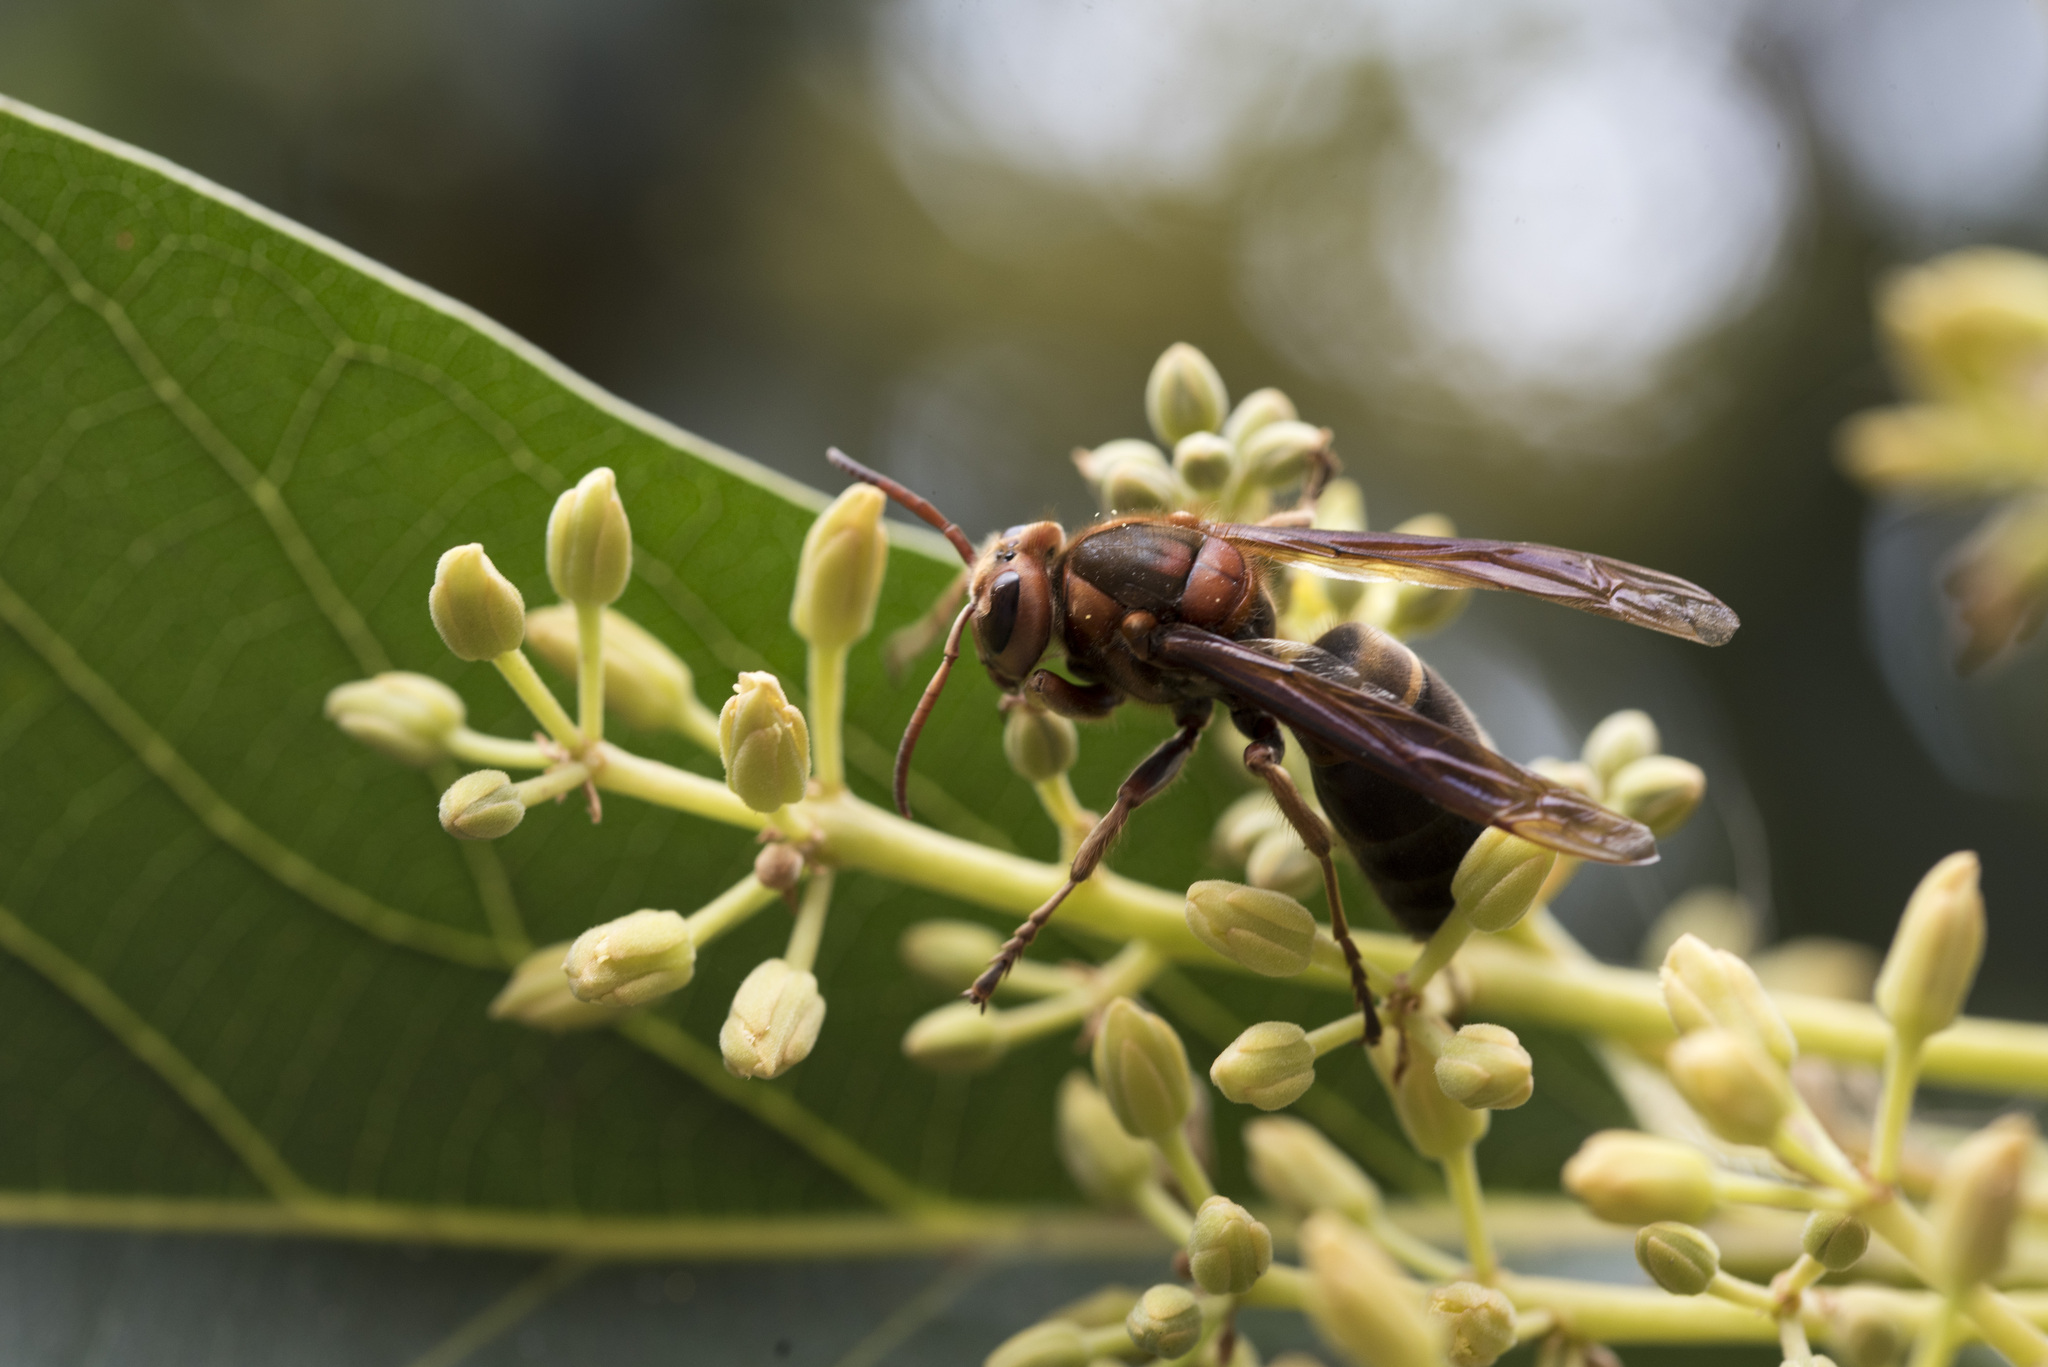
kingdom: Animalia
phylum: Arthropoda
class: Insecta
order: Hymenoptera
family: Vespidae
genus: Vespa
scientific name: Vespa basalis
